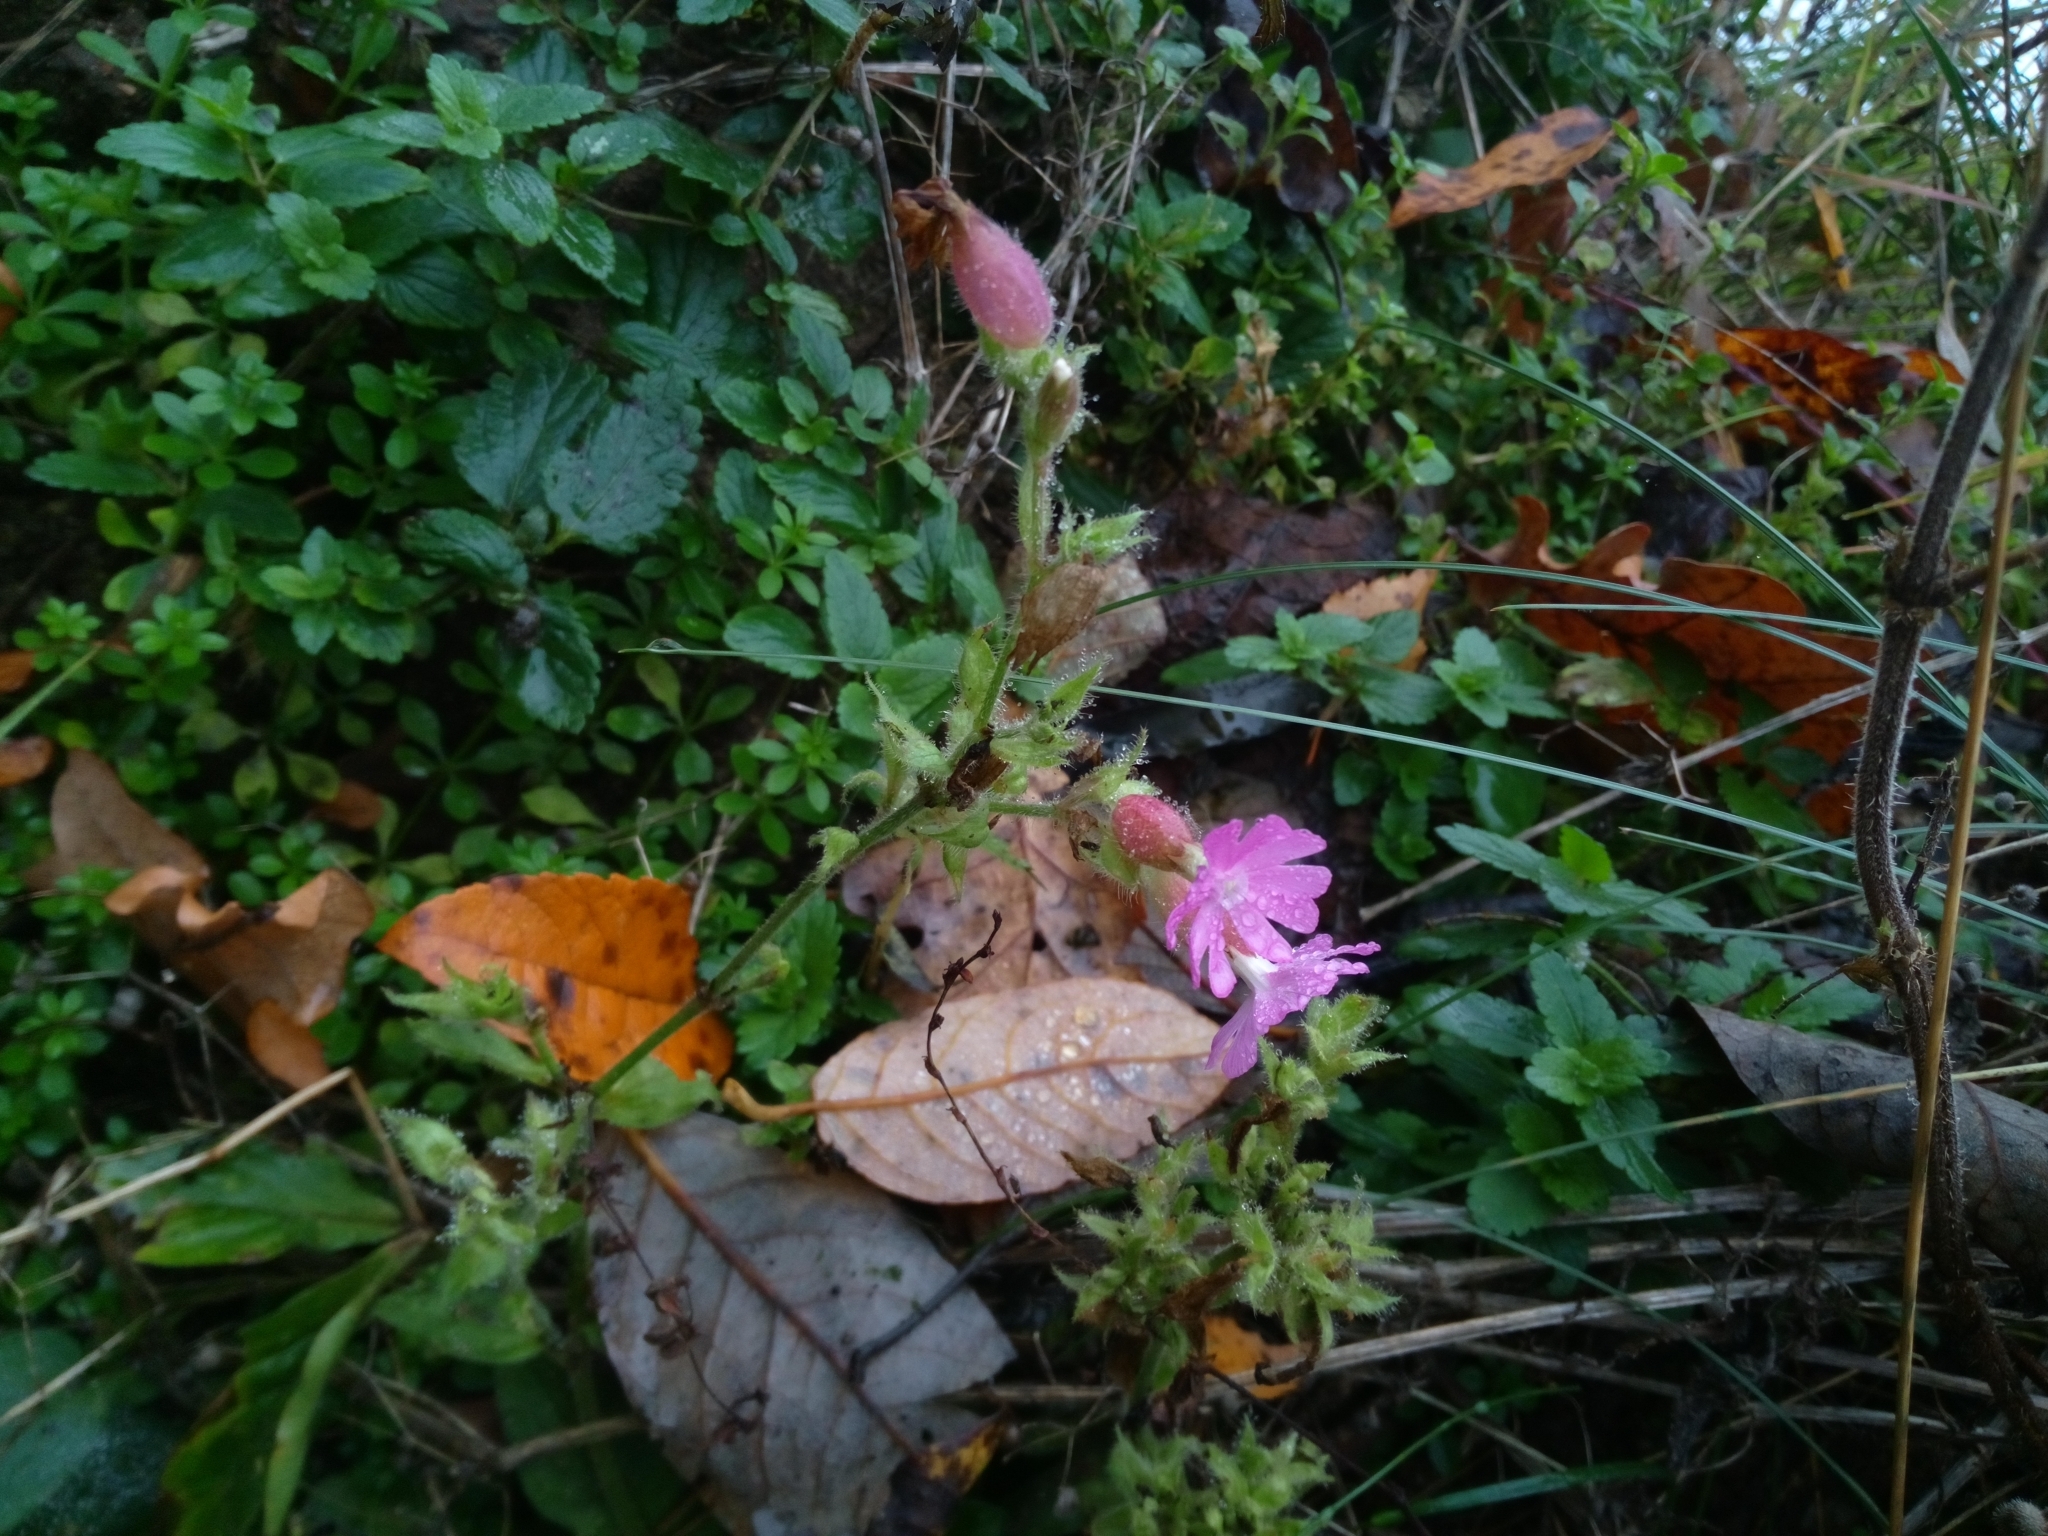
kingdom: Plantae
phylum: Tracheophyta
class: Magnoliopsida
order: Caryophyllales
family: Caryophyllaceae
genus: Silene
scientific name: Silene dioica
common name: Red campion
